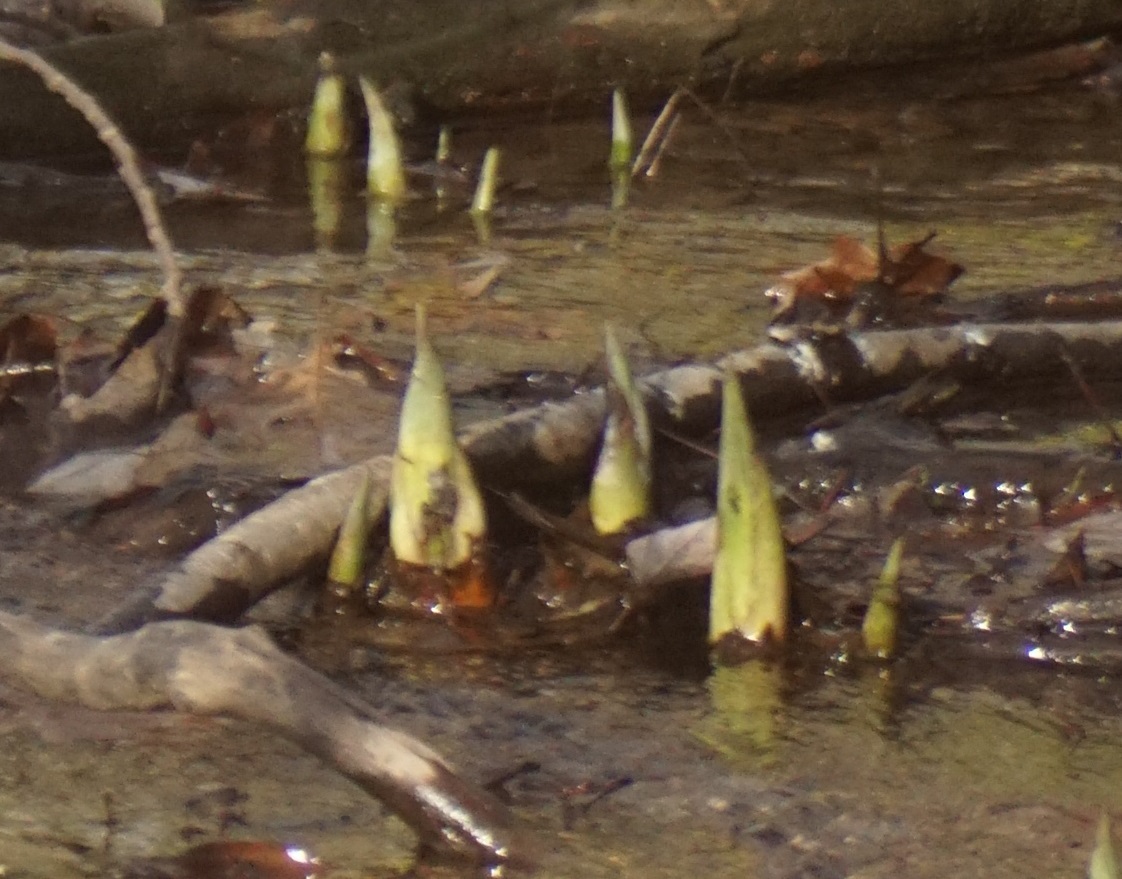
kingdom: Plantae
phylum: Tracheophyta
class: Liliopsida
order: Alismatales
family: Araceae
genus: Symplocarpus
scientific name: Symplocarpus foetidus
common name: Eastern skunk cabbage
